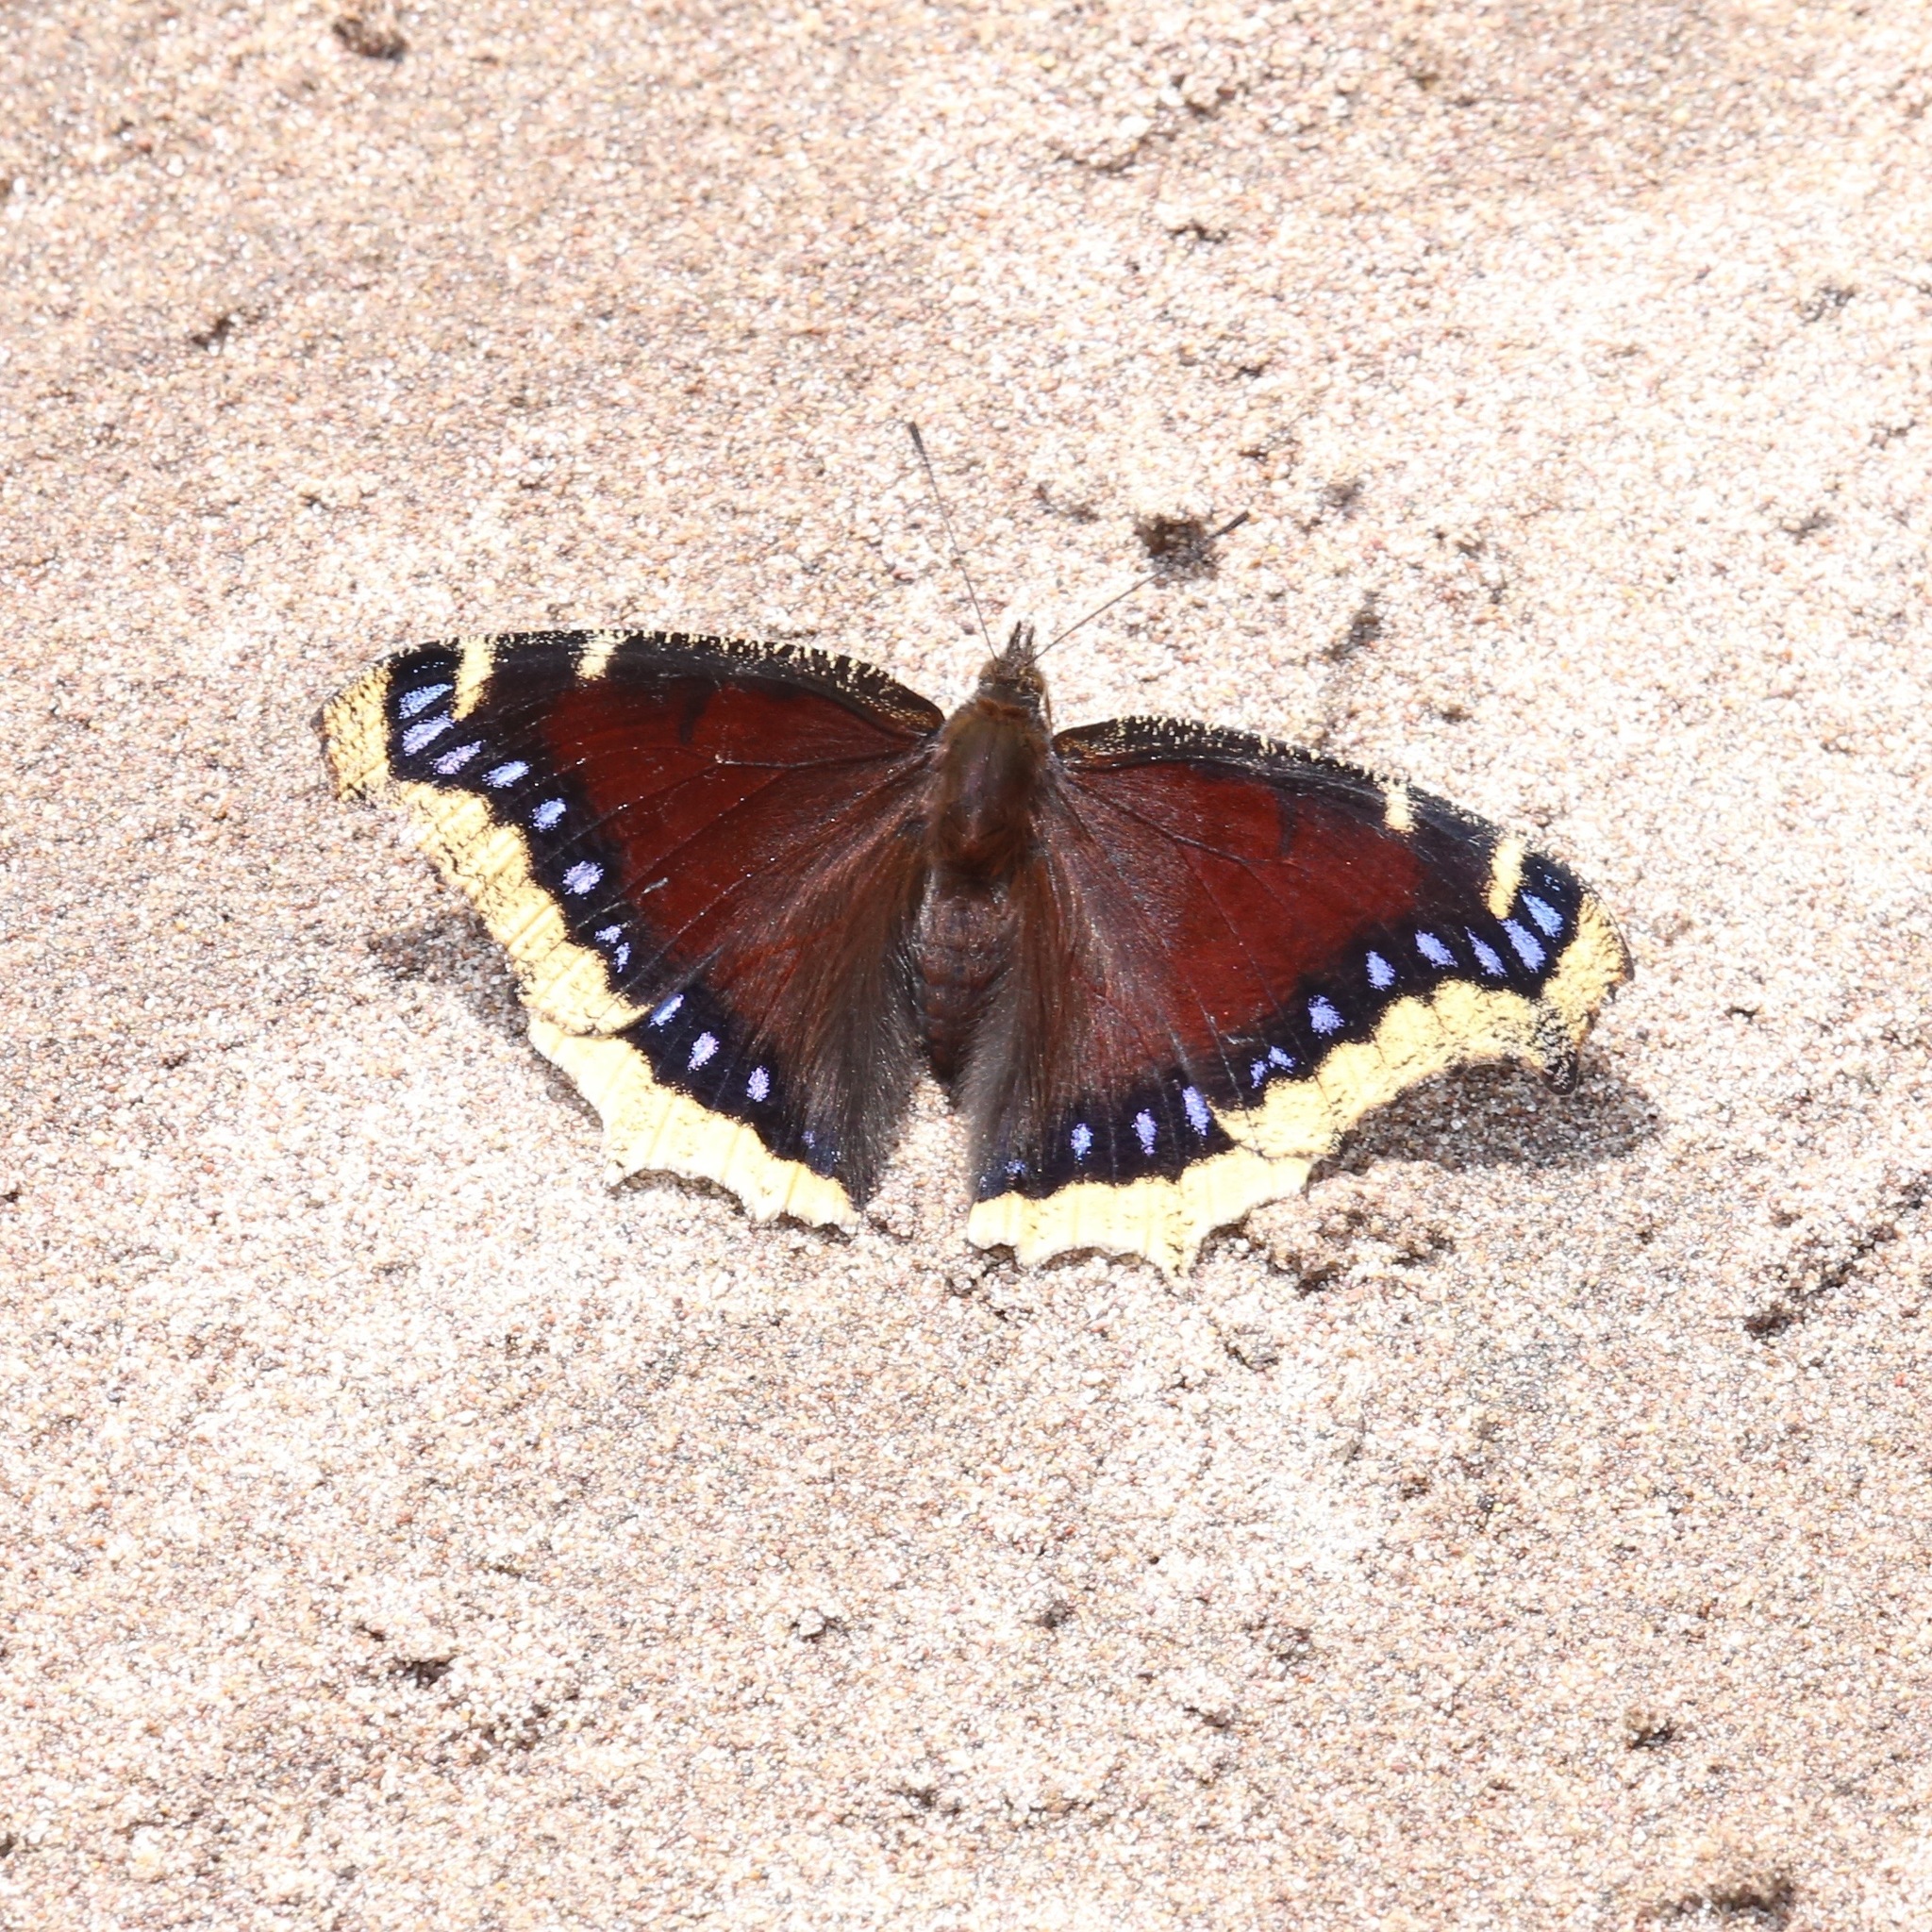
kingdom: Animalia
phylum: Arthropoda
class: Insecta
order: Lepidoptera
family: Nymphalidae
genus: Nymphalis
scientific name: Nymphalis antiopa
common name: Camberwell beauty
